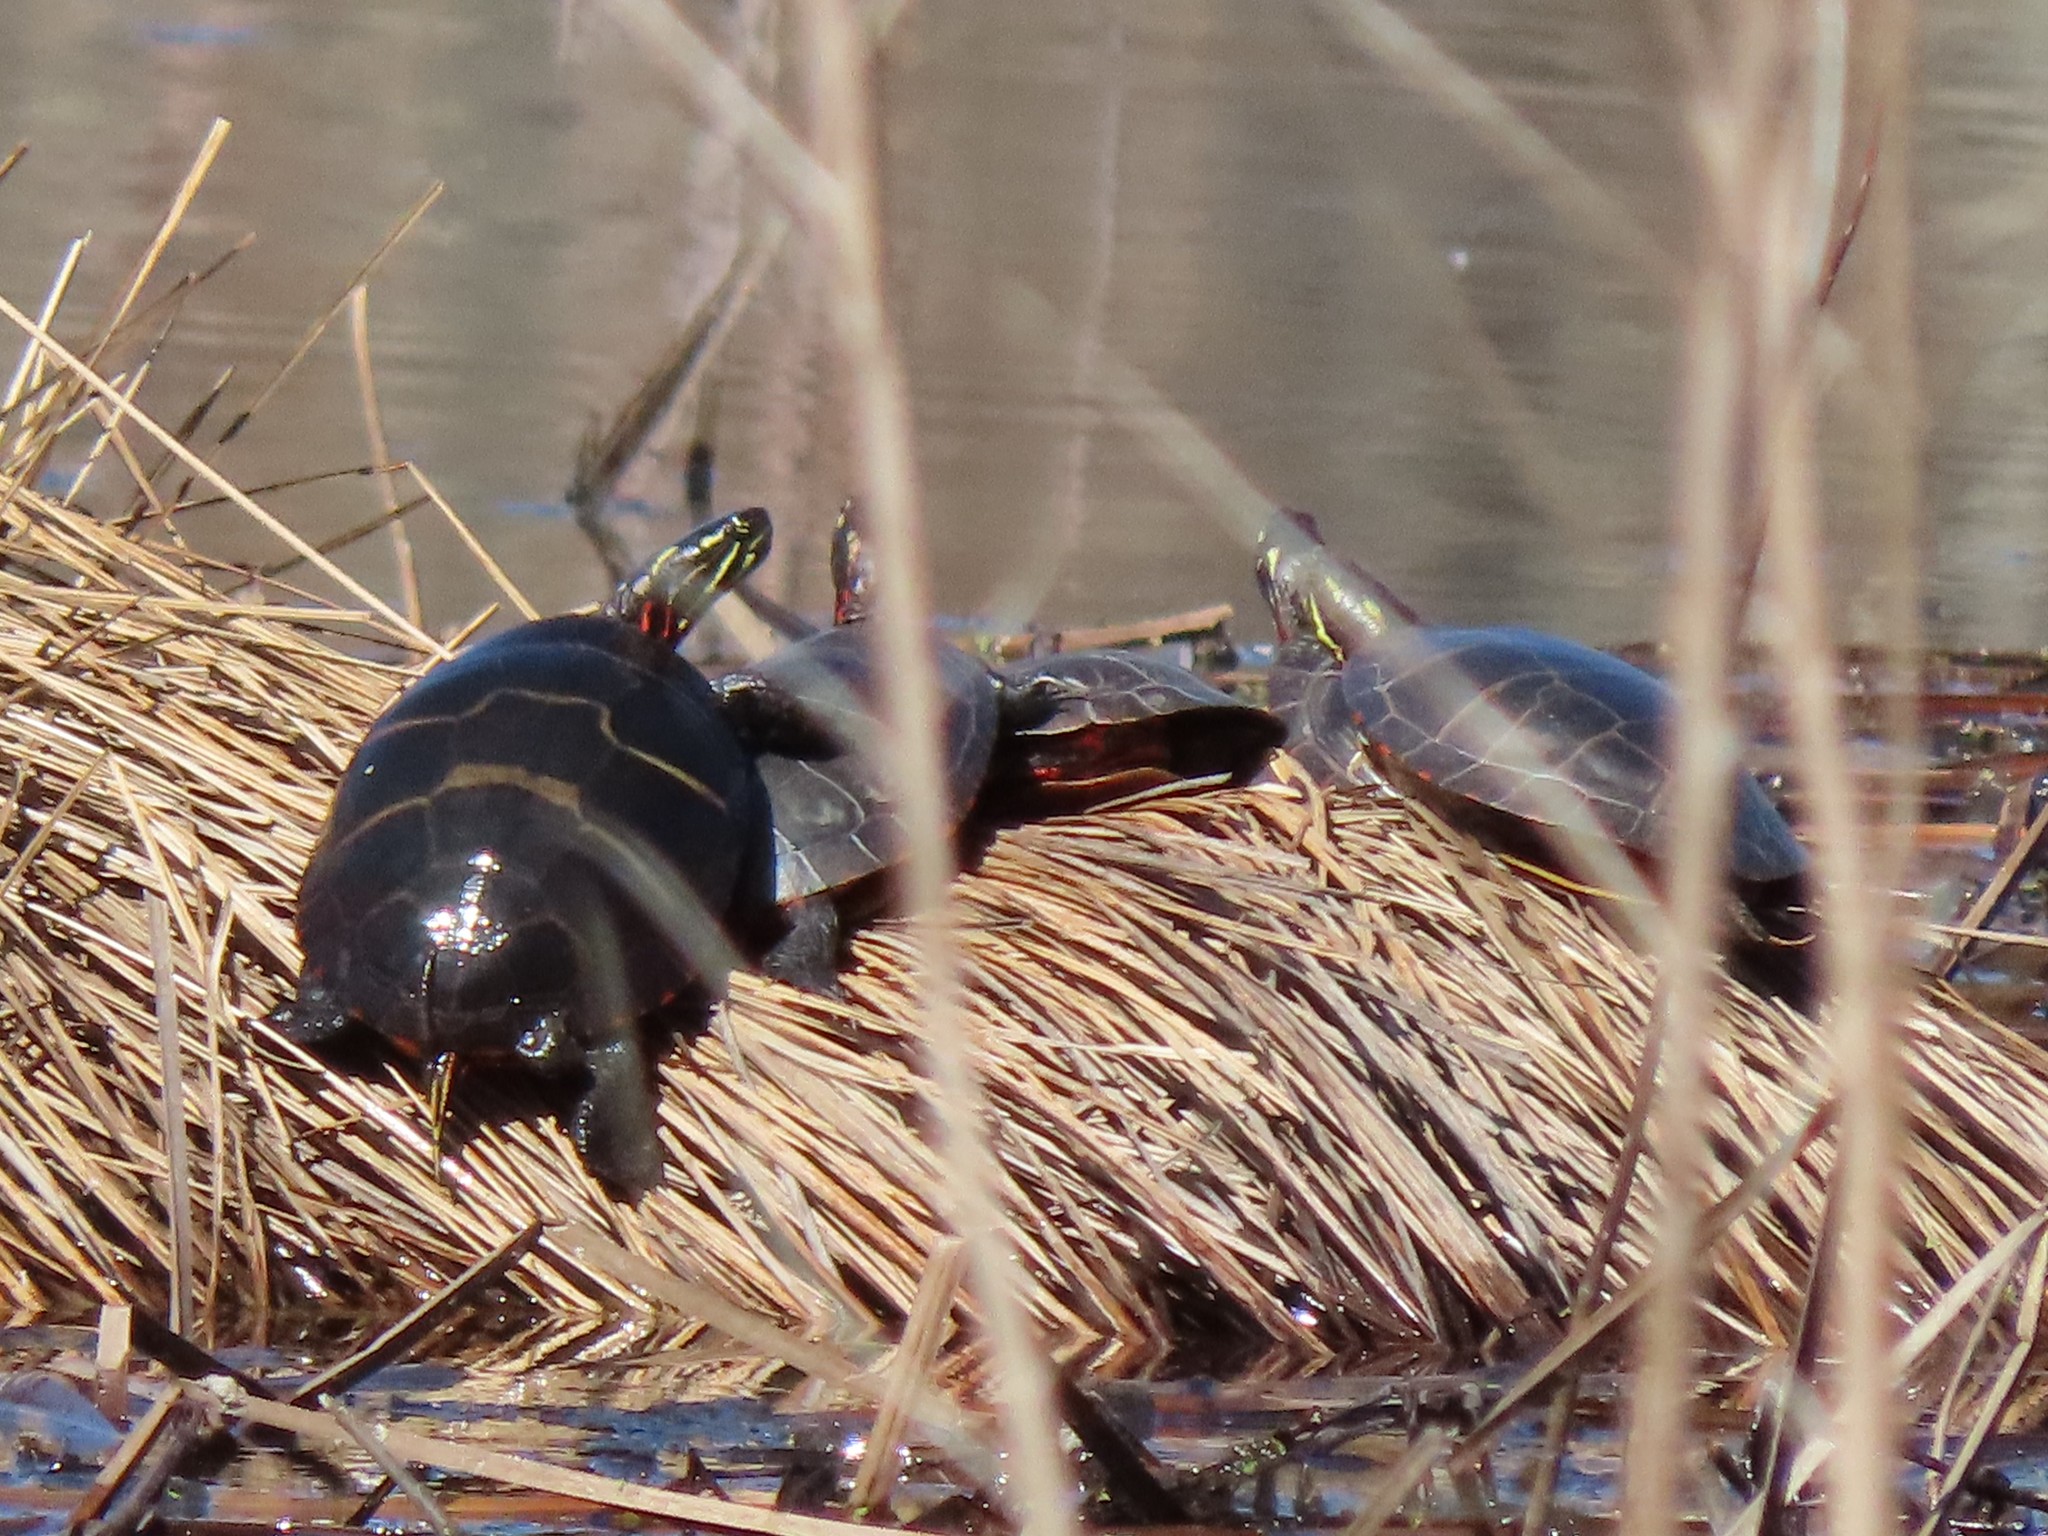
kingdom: Animalia
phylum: Chordata
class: Testudines
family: Emydidae
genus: Chrysemys
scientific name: Chrysemys picta
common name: Painted turtle
